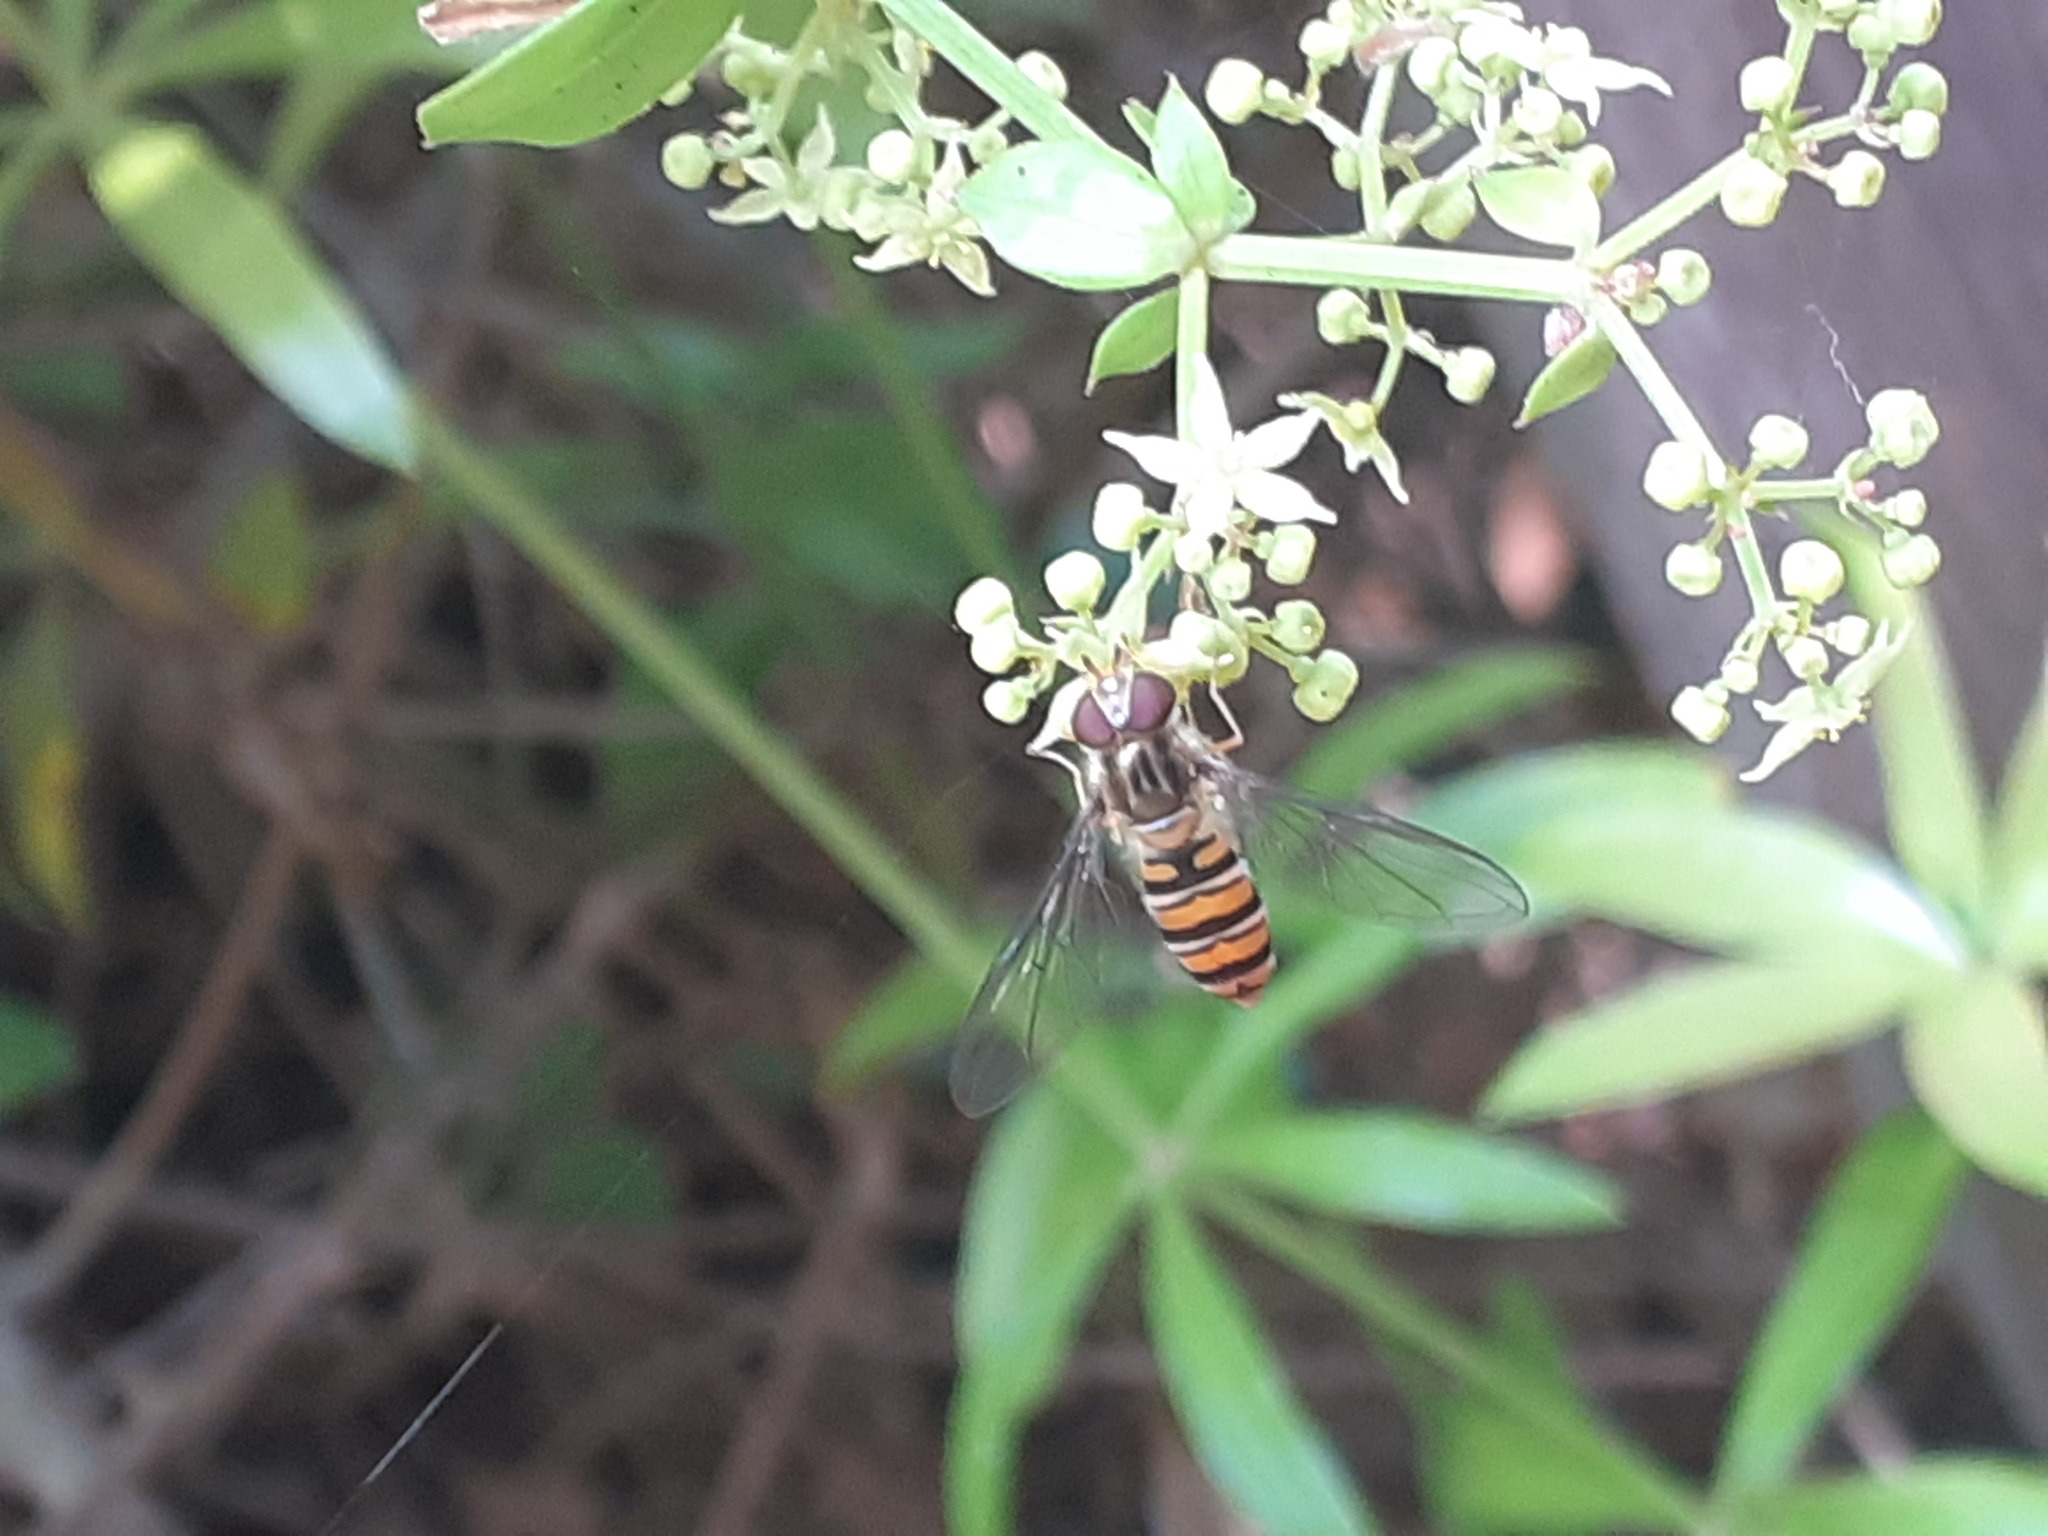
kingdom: Animalia
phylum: Arthropoda
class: Insecta
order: Diptera
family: Syrphidae
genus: Episyrphus
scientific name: Episyrphus balteatus
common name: Marmalade hoverfly
